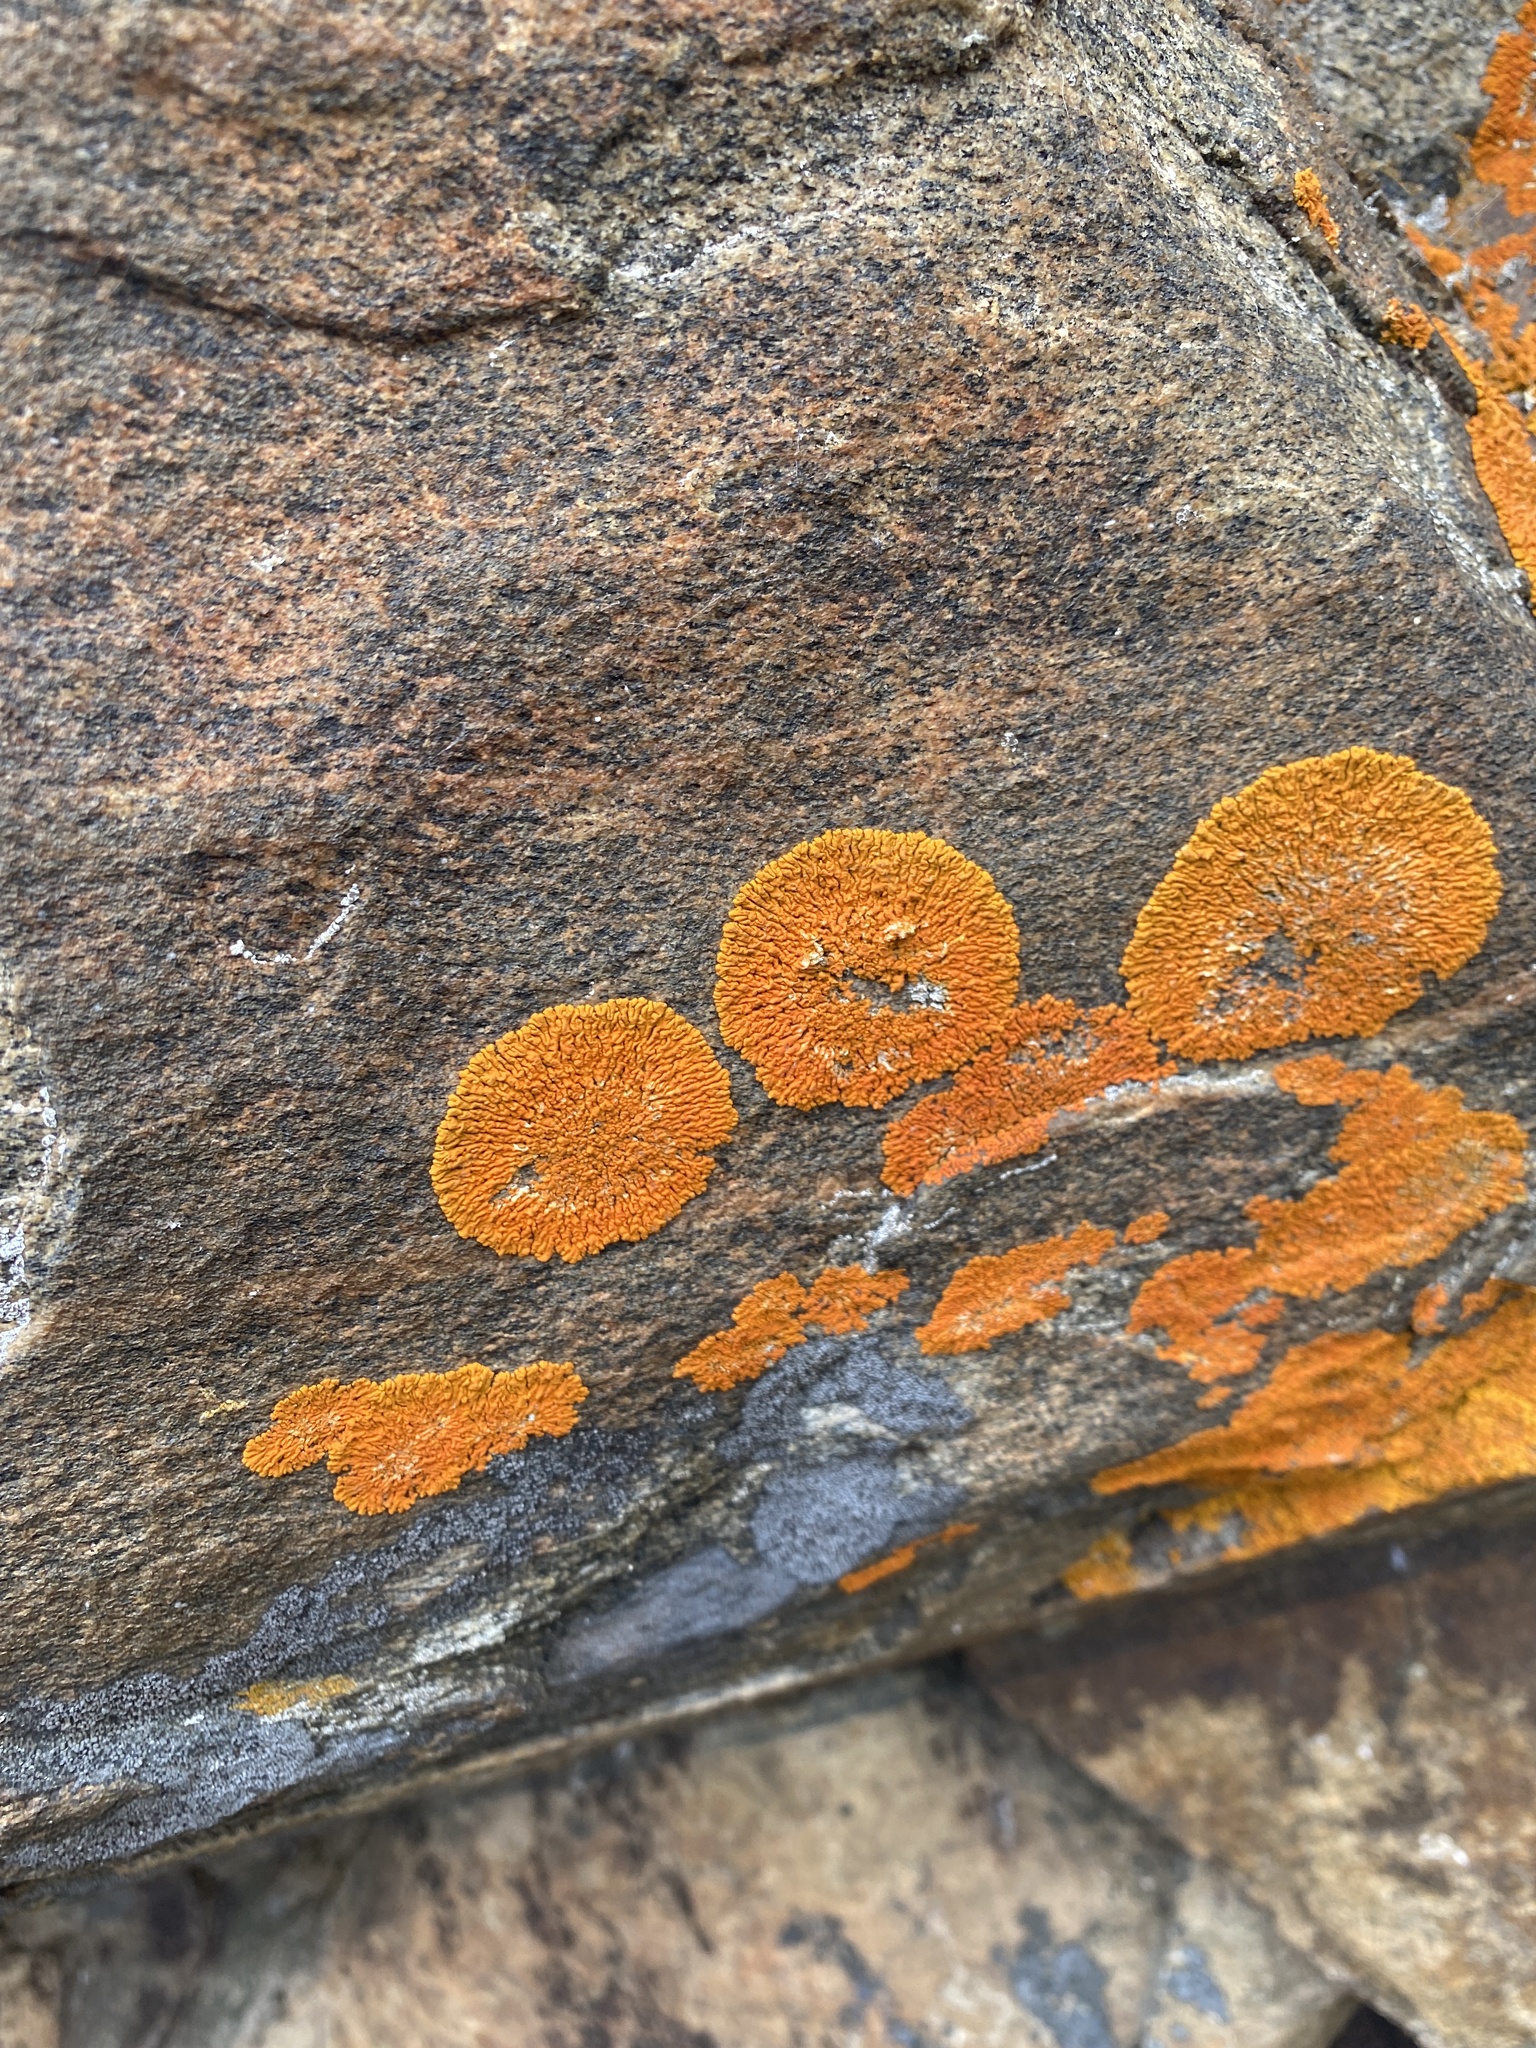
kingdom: Fungi
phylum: Ascomycota
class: Lecanoromycetes
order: Teloschistales
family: Teloschistaceae
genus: Xanthoria
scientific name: Xanthoria elegans
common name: Elegant sunburst lichen
